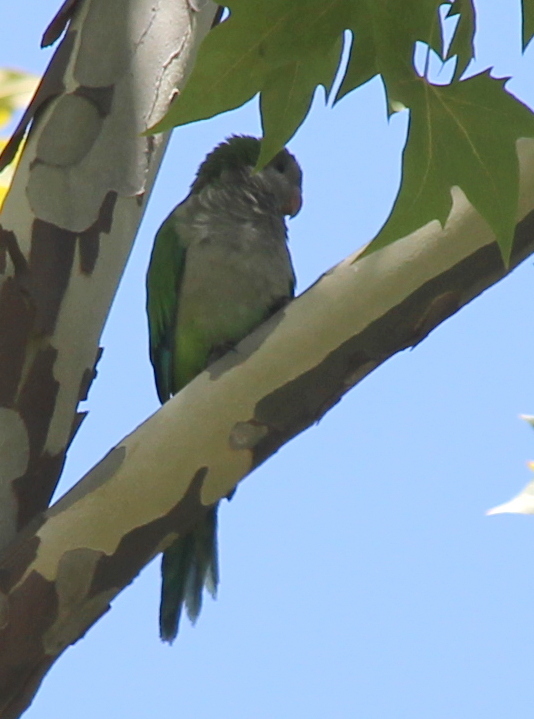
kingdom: Animalia
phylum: Chordata
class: Aves
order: Psittaciformes
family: Psittacidae
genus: Myiopsitta
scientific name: Myiopsitta monachus
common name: Monk parakeet
